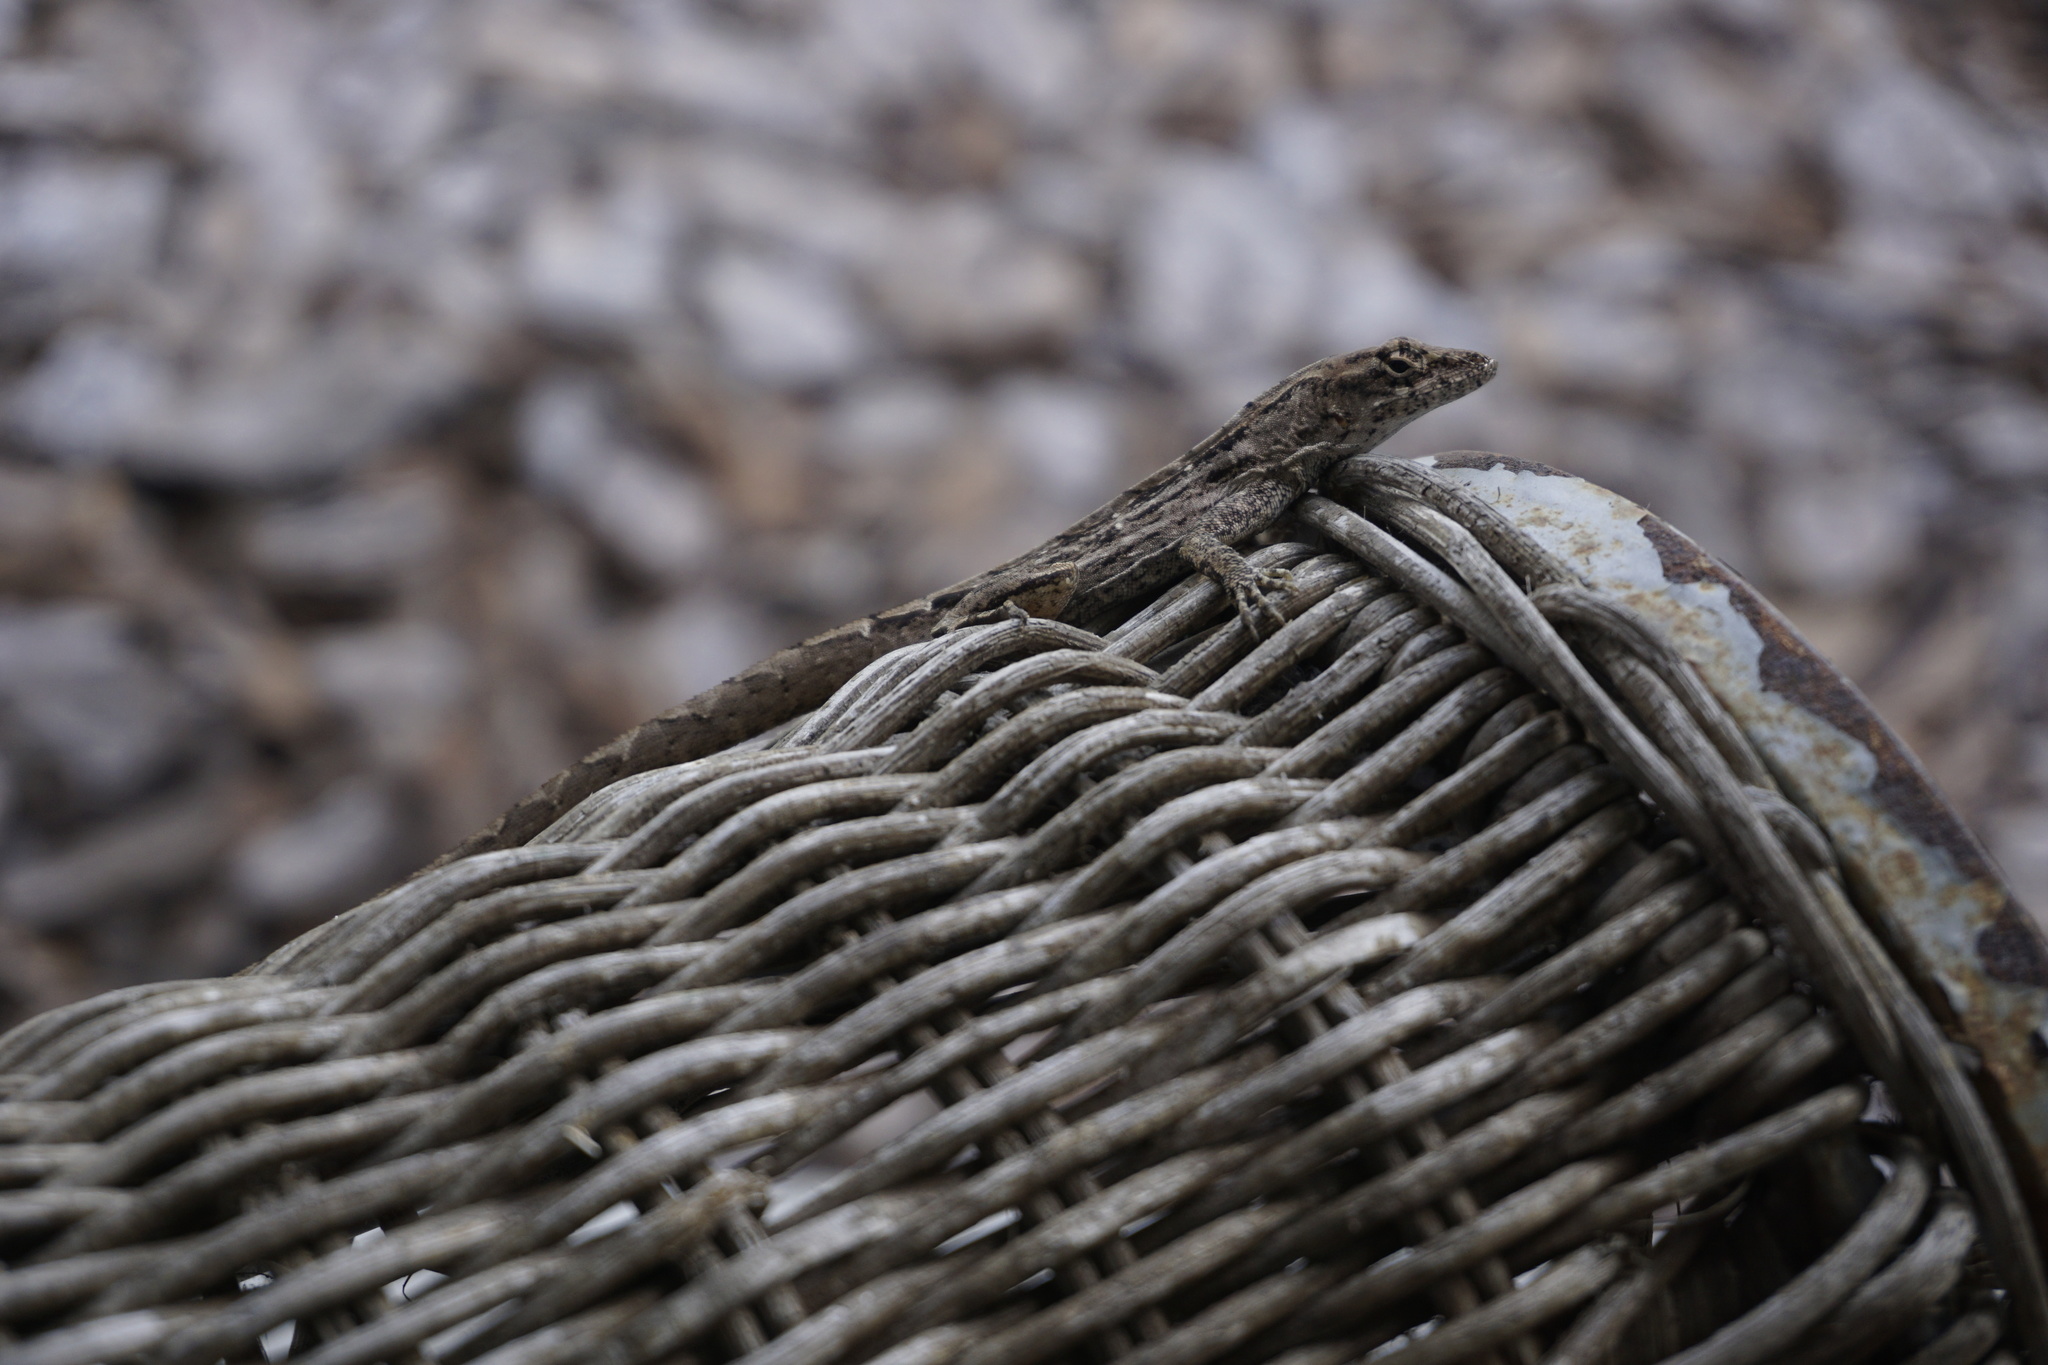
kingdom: Animalia
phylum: Chordata
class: Squamata
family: Dactyloidae
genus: Anolis
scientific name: Anolis sagrei
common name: Brown anole
